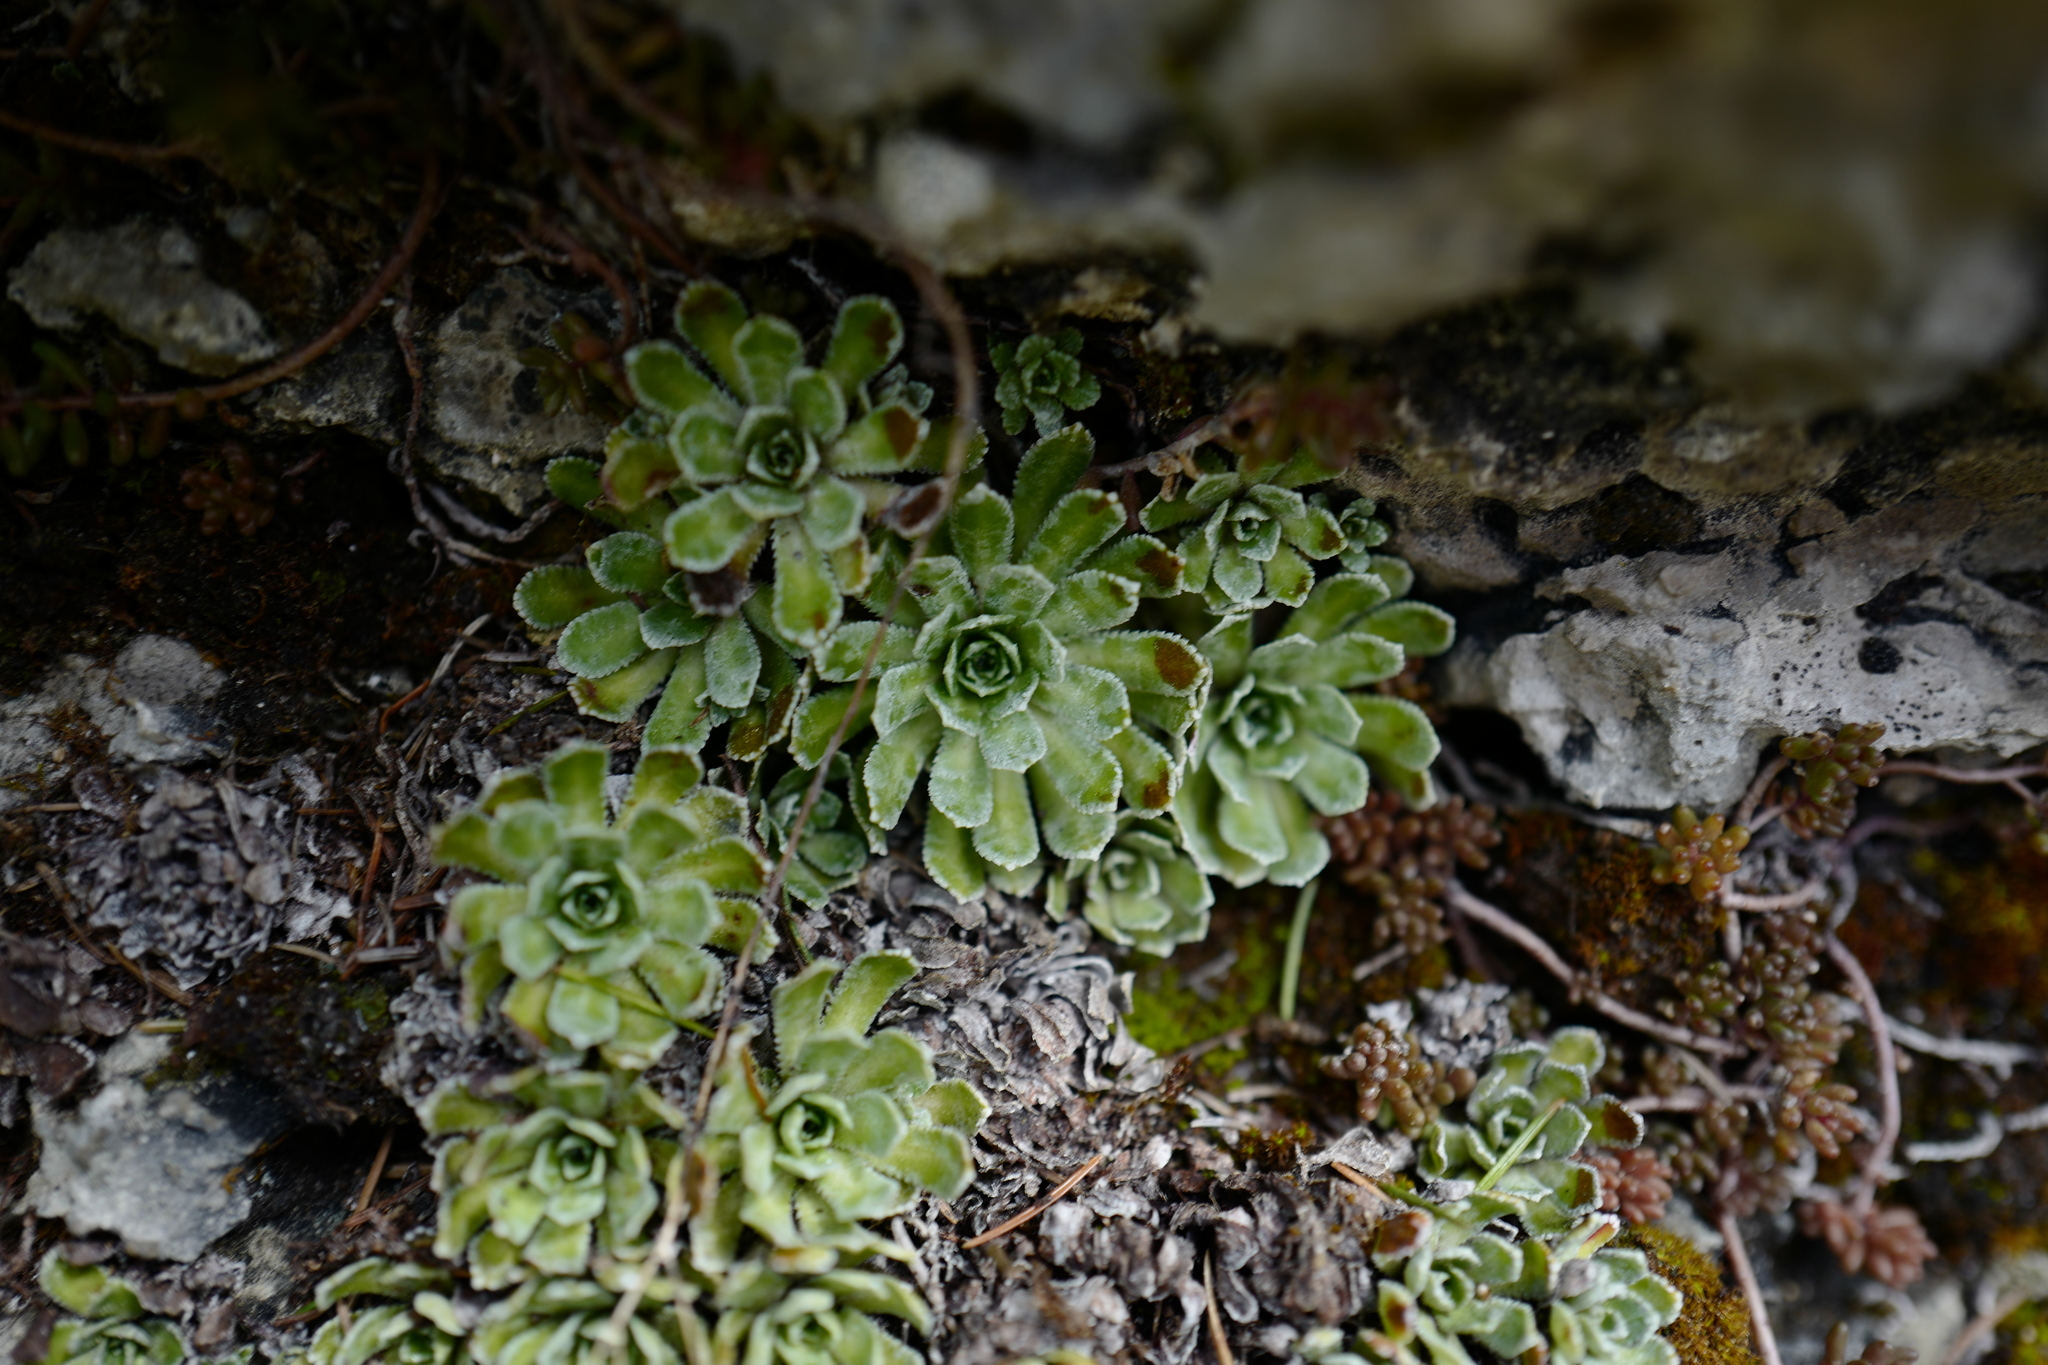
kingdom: Plantae
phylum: Tracheophyta
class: Magnoliopsida
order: Saxifragales
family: Saxifragaceae
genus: Saxifraga
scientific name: Saxifraga paniculata
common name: Livelong saxifrage
